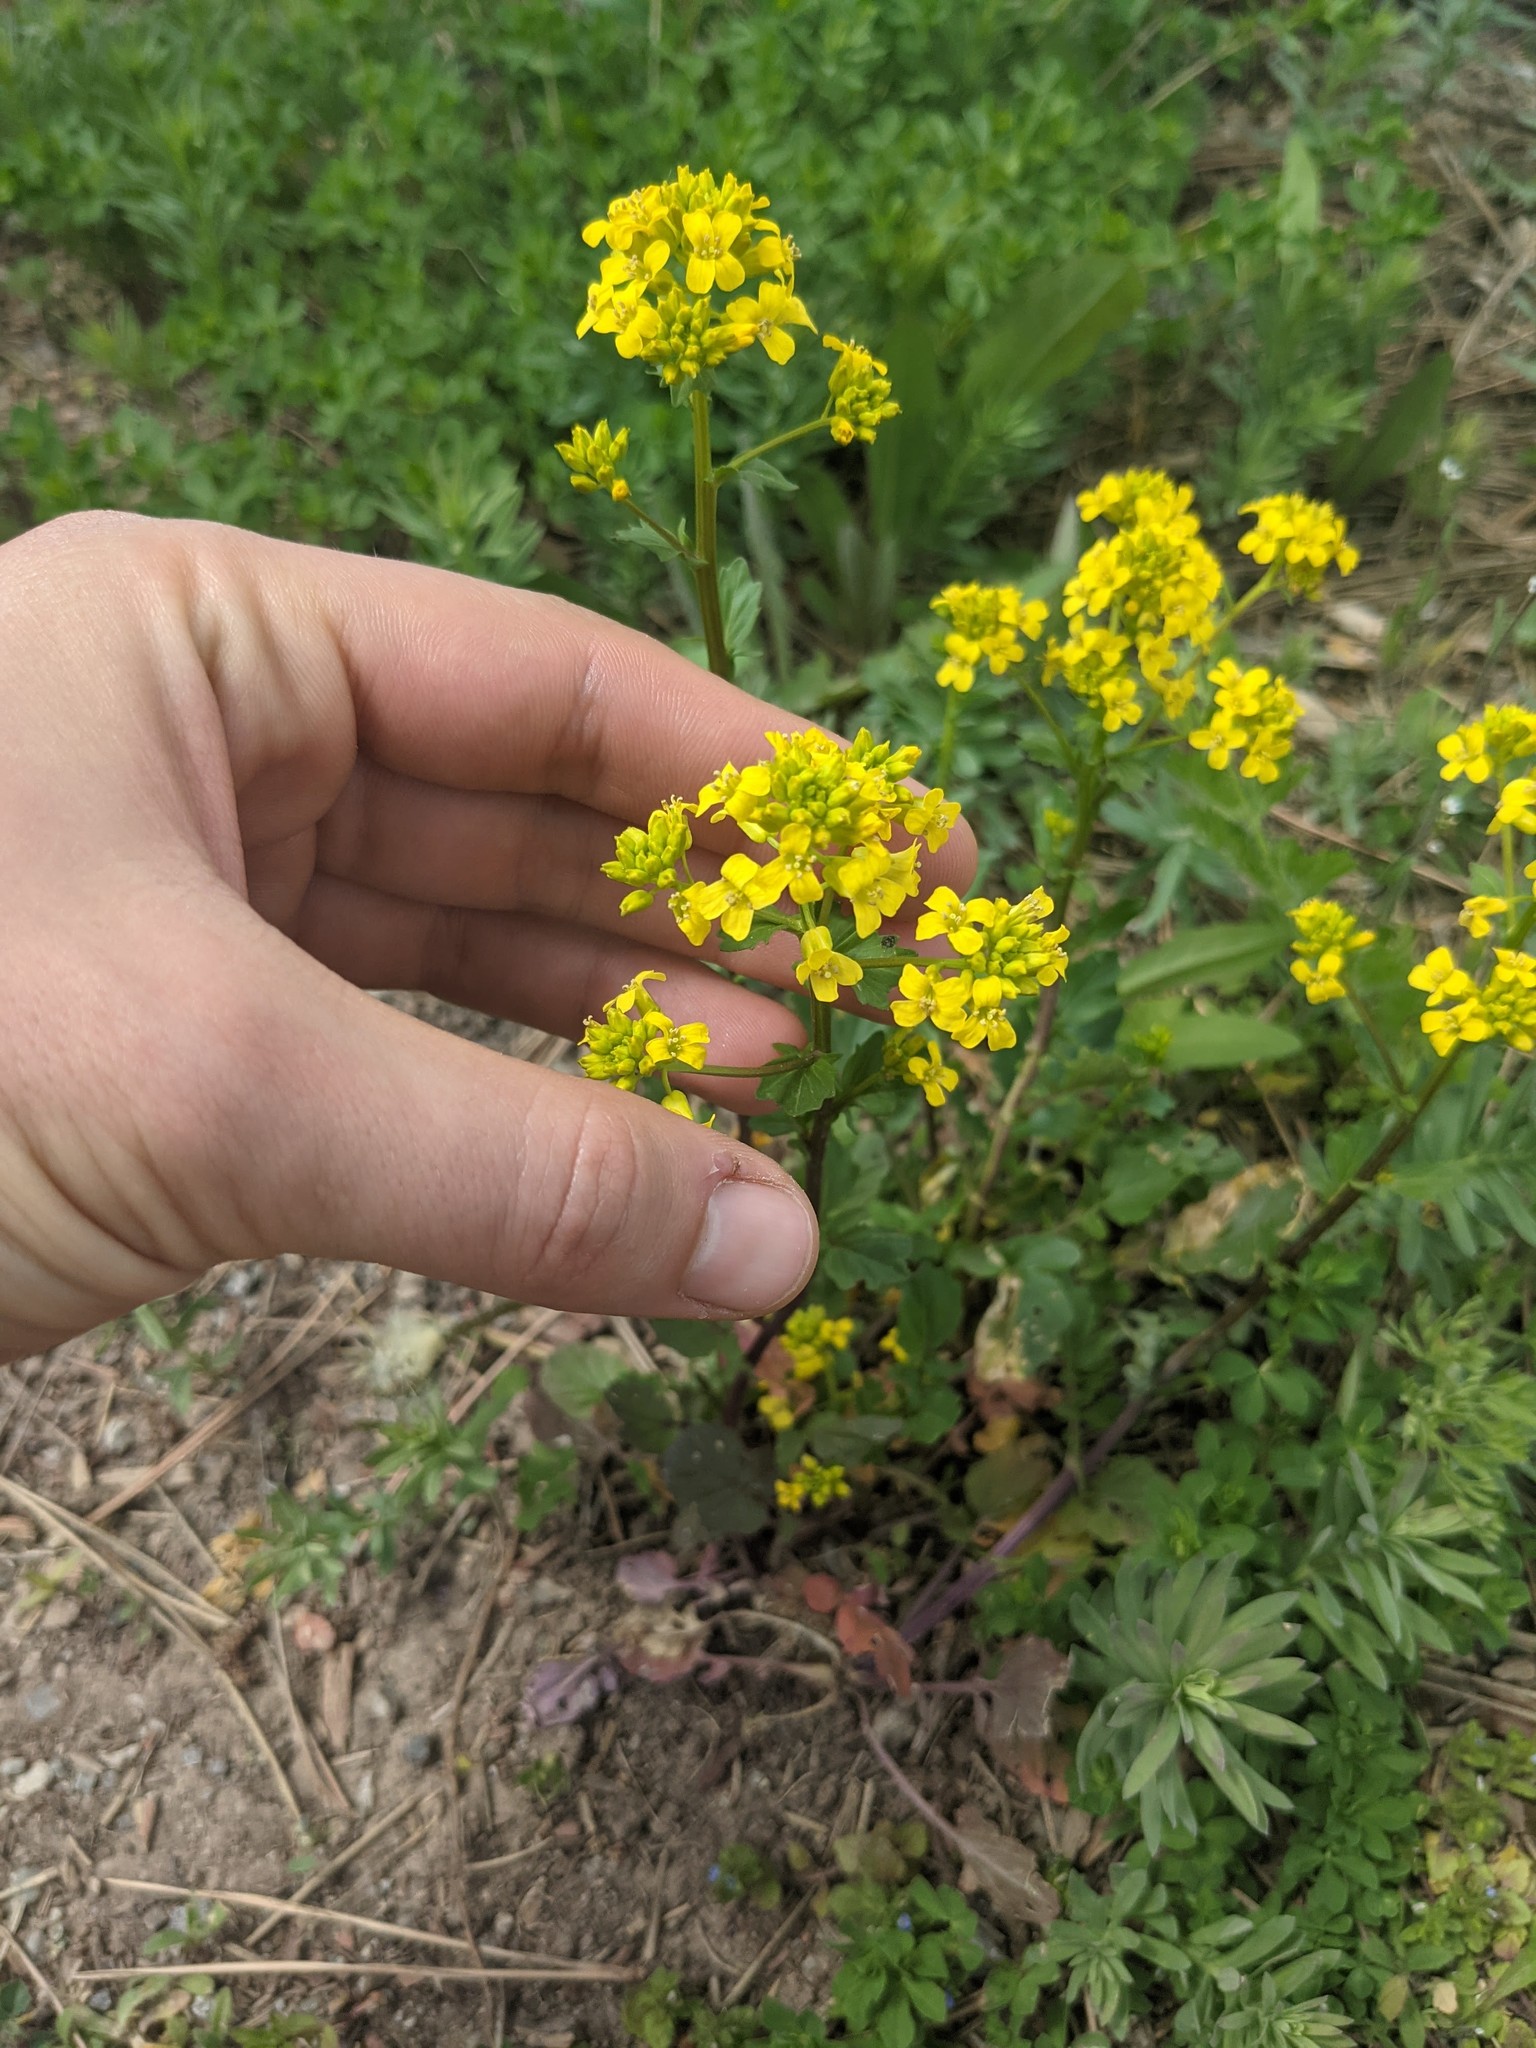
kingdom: Plantae
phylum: Tracheophyta
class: Magnoliopsida
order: Brassicales
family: Brassicaceae
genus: Barbarea
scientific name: Barbarea vulgaris
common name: Cressy-greens
